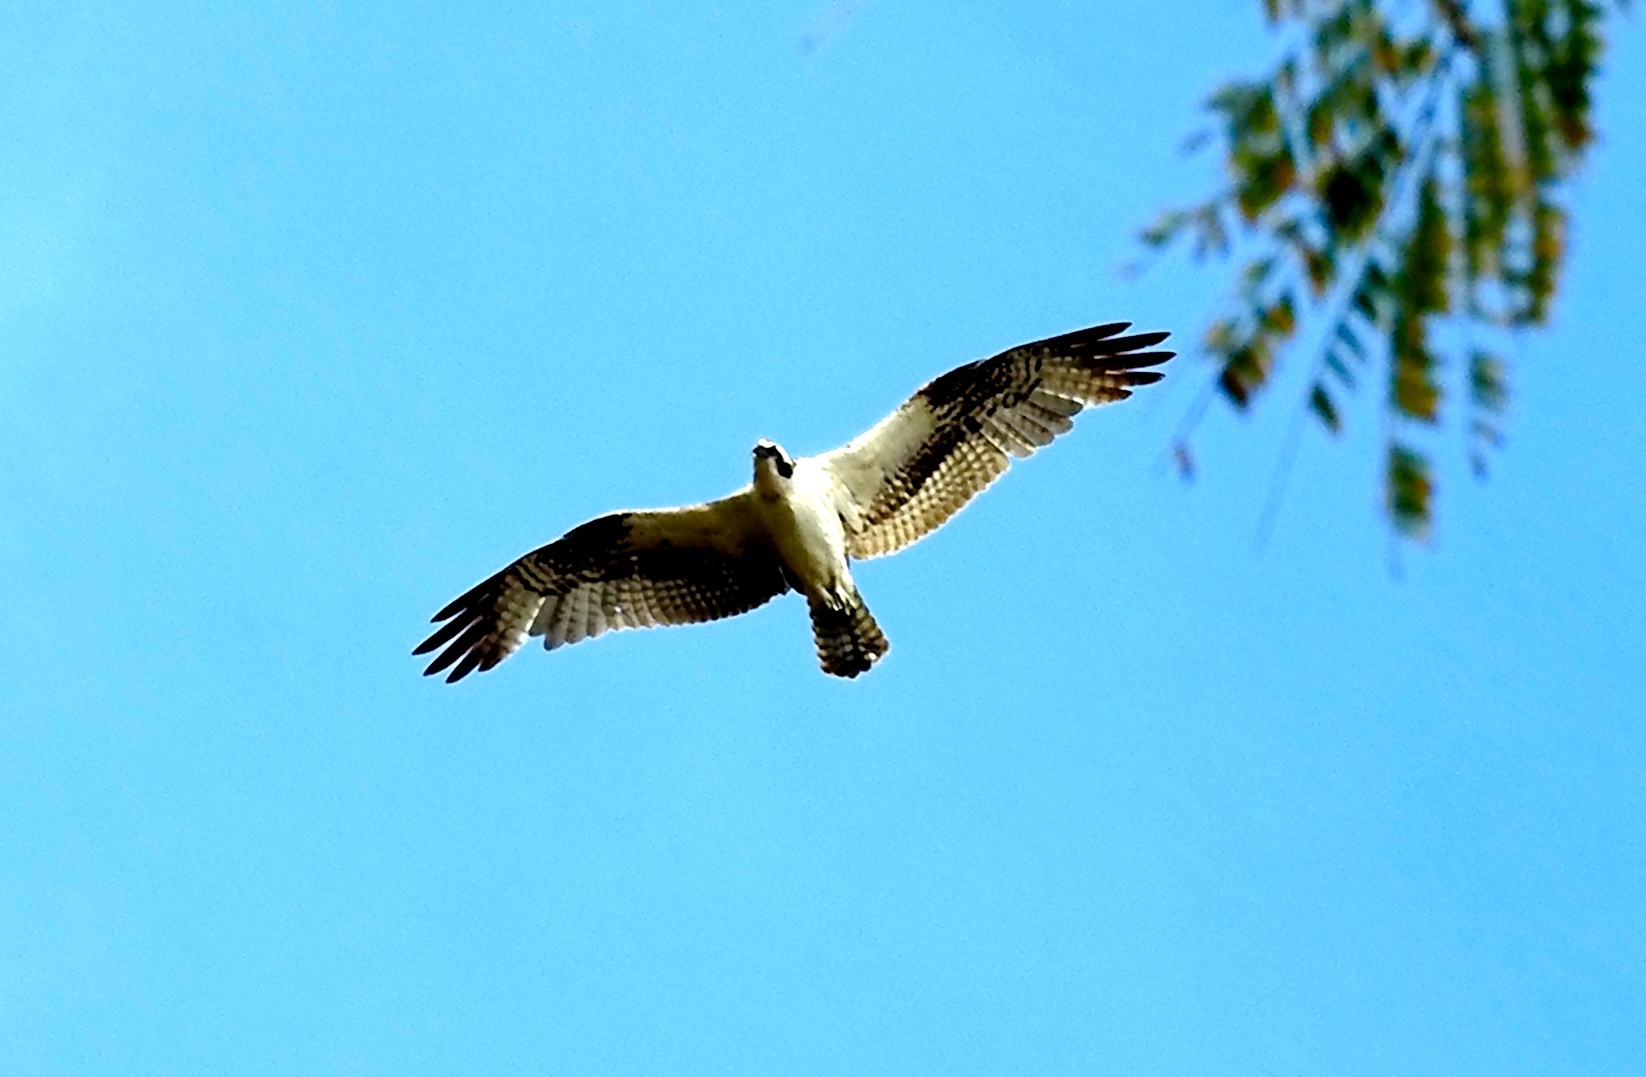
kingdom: Animalia
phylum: Chordata
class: Aves
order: Accipitriformes
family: Pandionidae
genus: Pandion
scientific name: Pandion haliaetus
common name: Osprey
